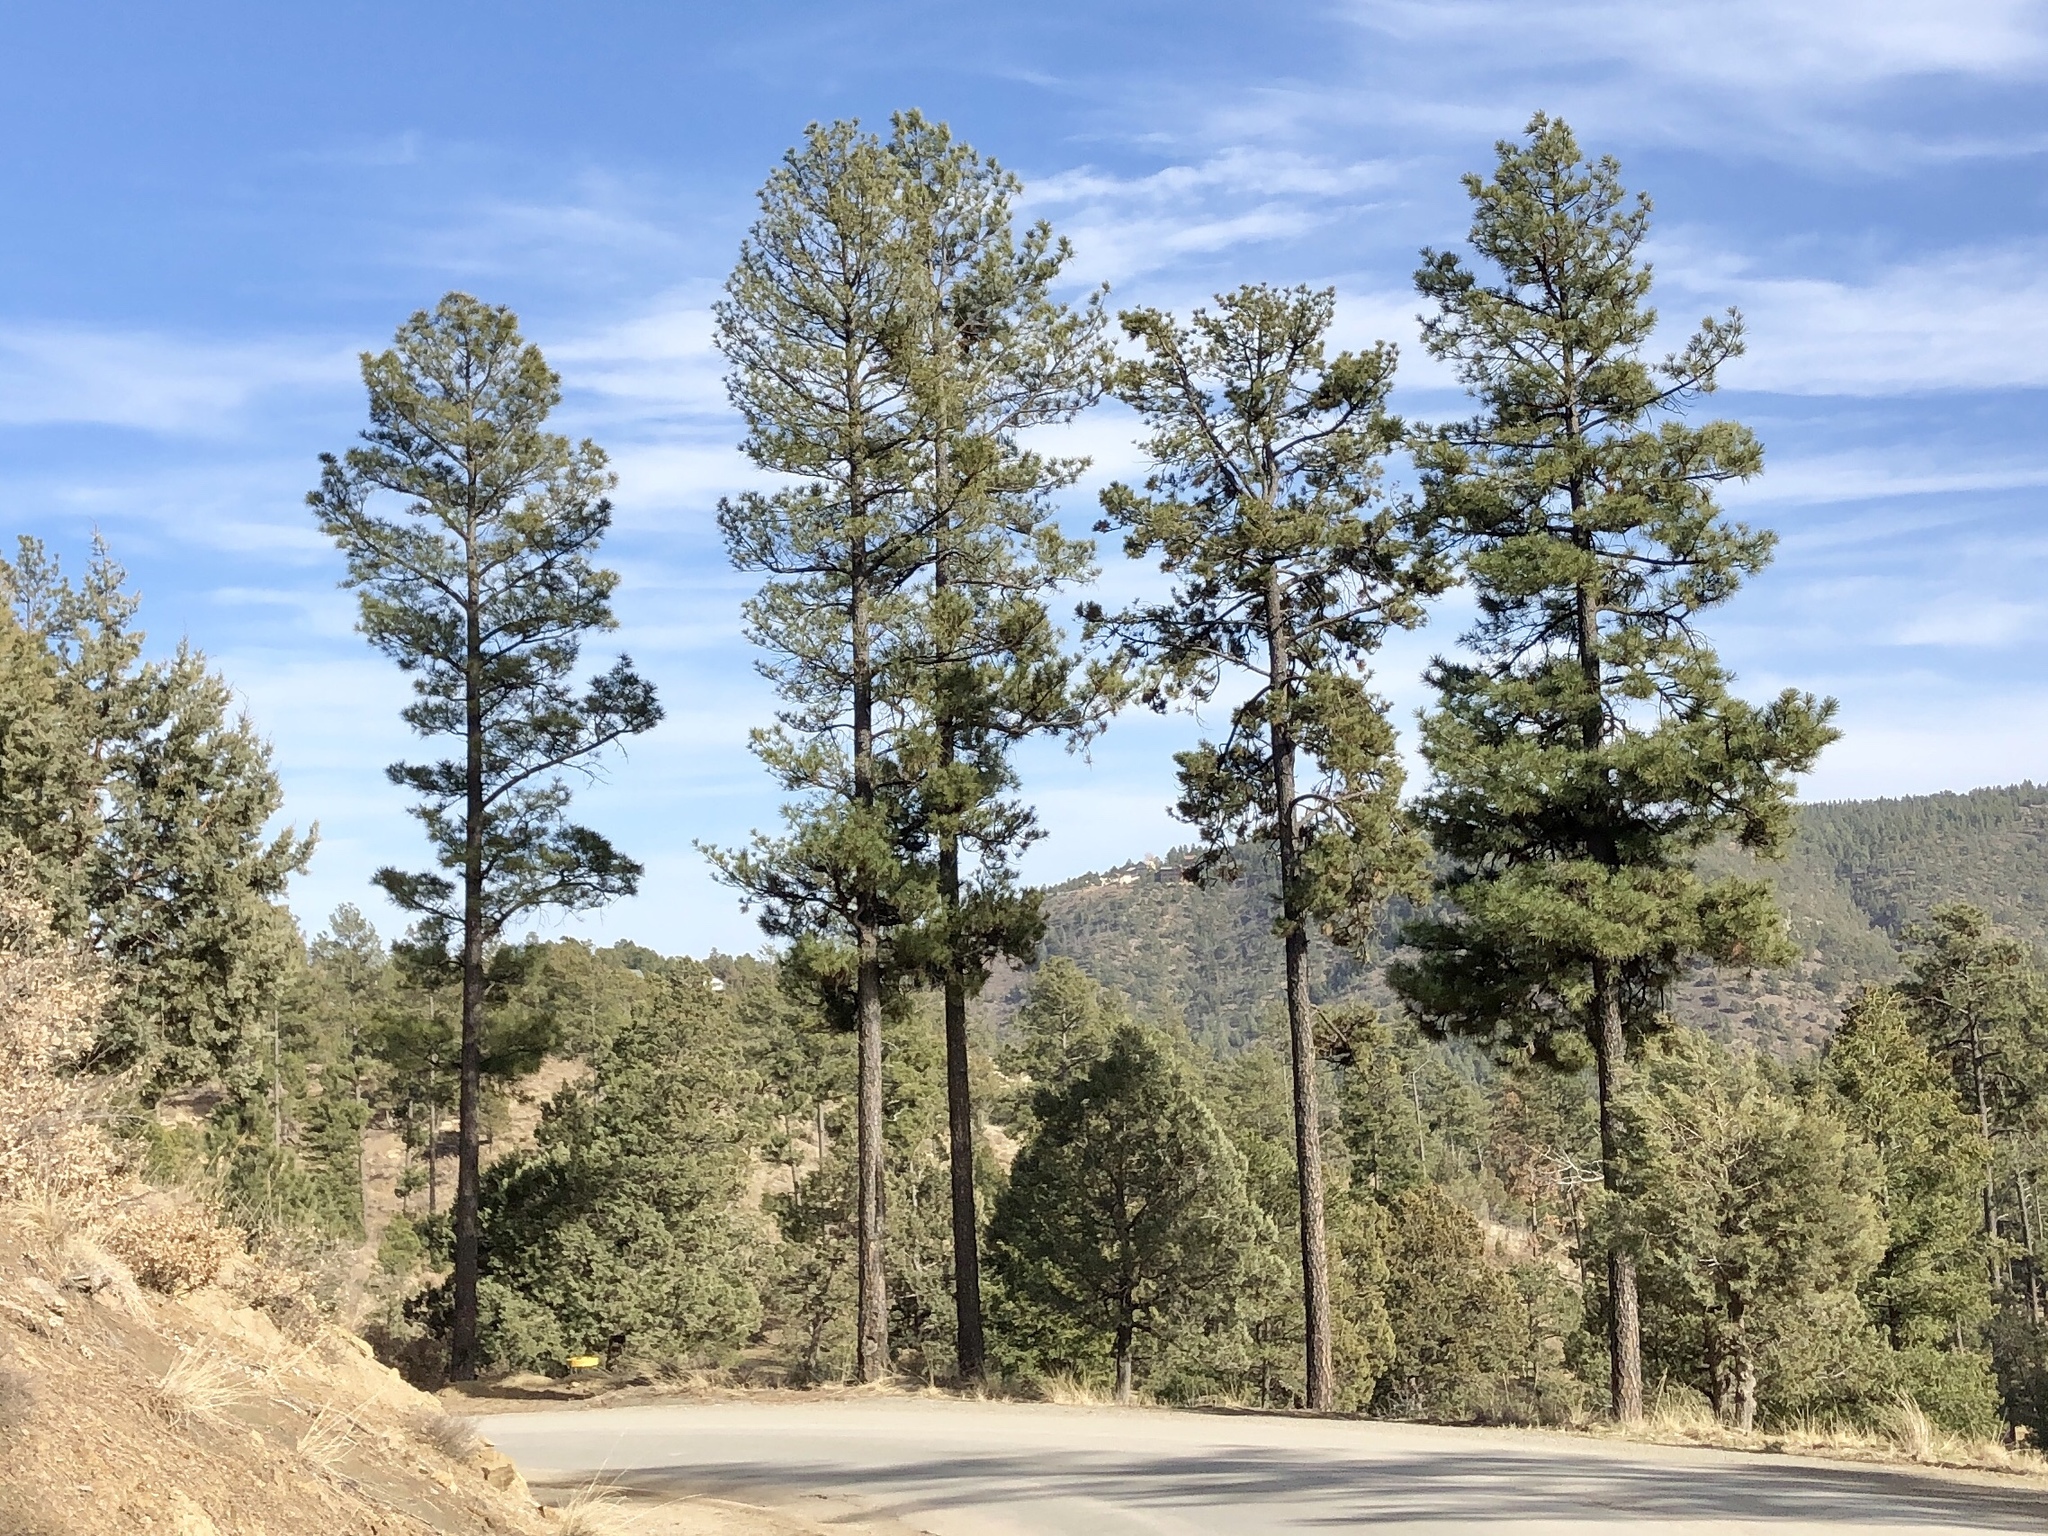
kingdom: Plantae
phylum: Tracheophyta
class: Pinopsida
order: Pinales
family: Pinaceae
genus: Pinus
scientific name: Pinus ponderosa
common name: Western yellow-pine
